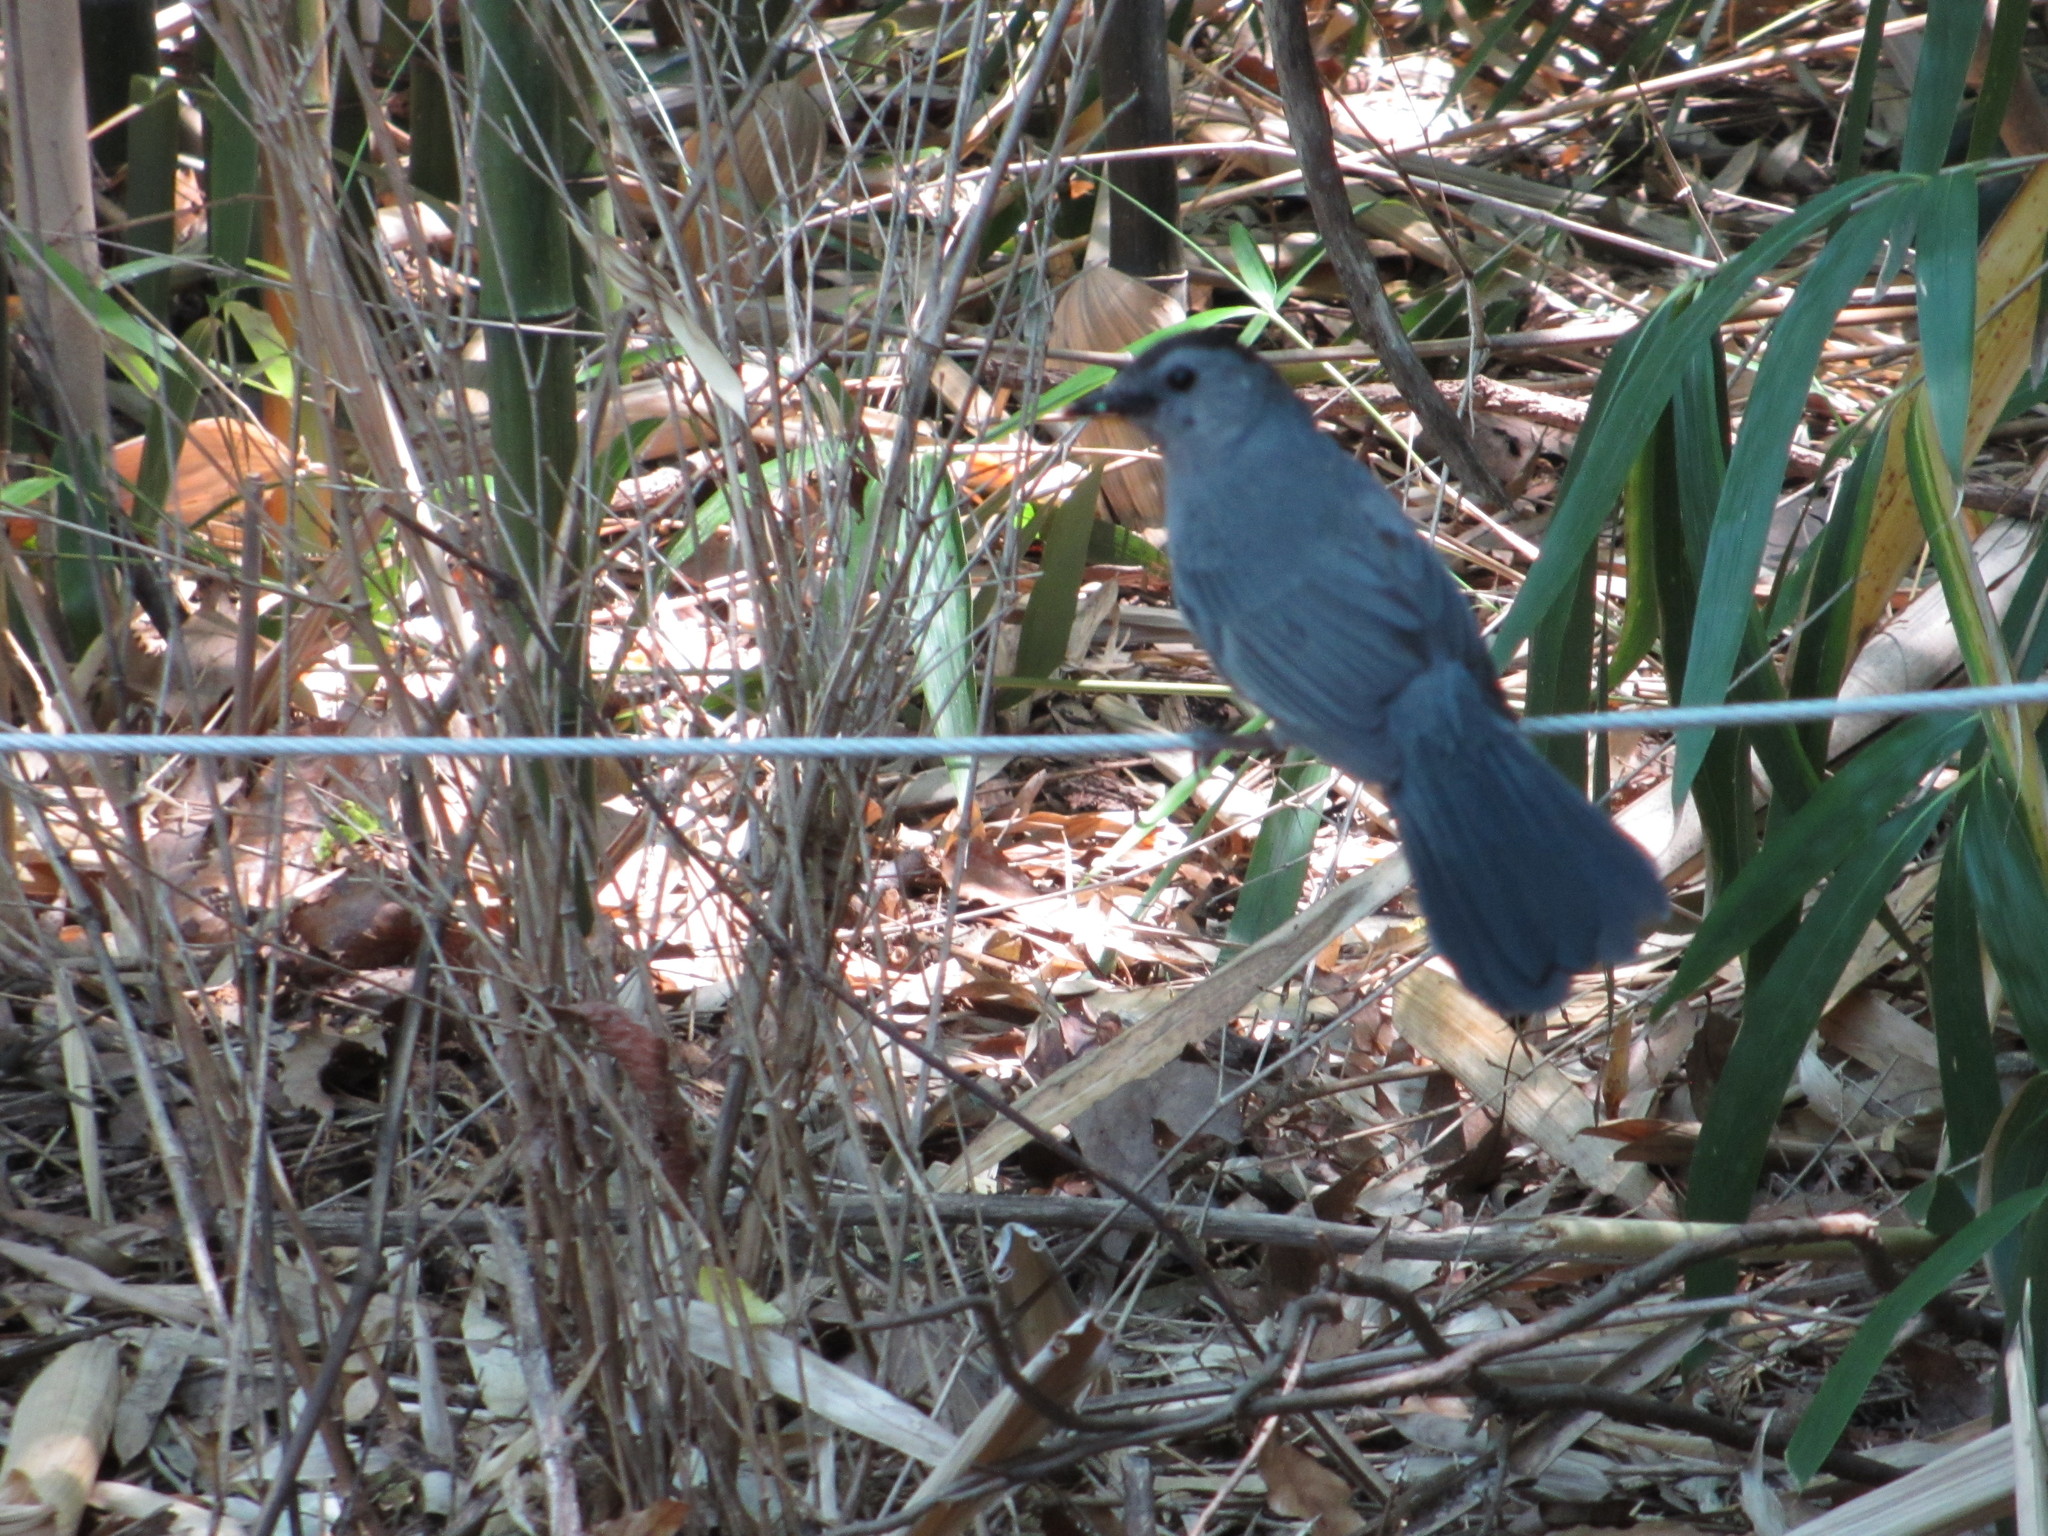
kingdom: Animalia
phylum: Chordata
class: Aves
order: Passeriformes
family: Mimidae
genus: Dumetella
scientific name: Dumetella carolinensis
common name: Gray catbird
